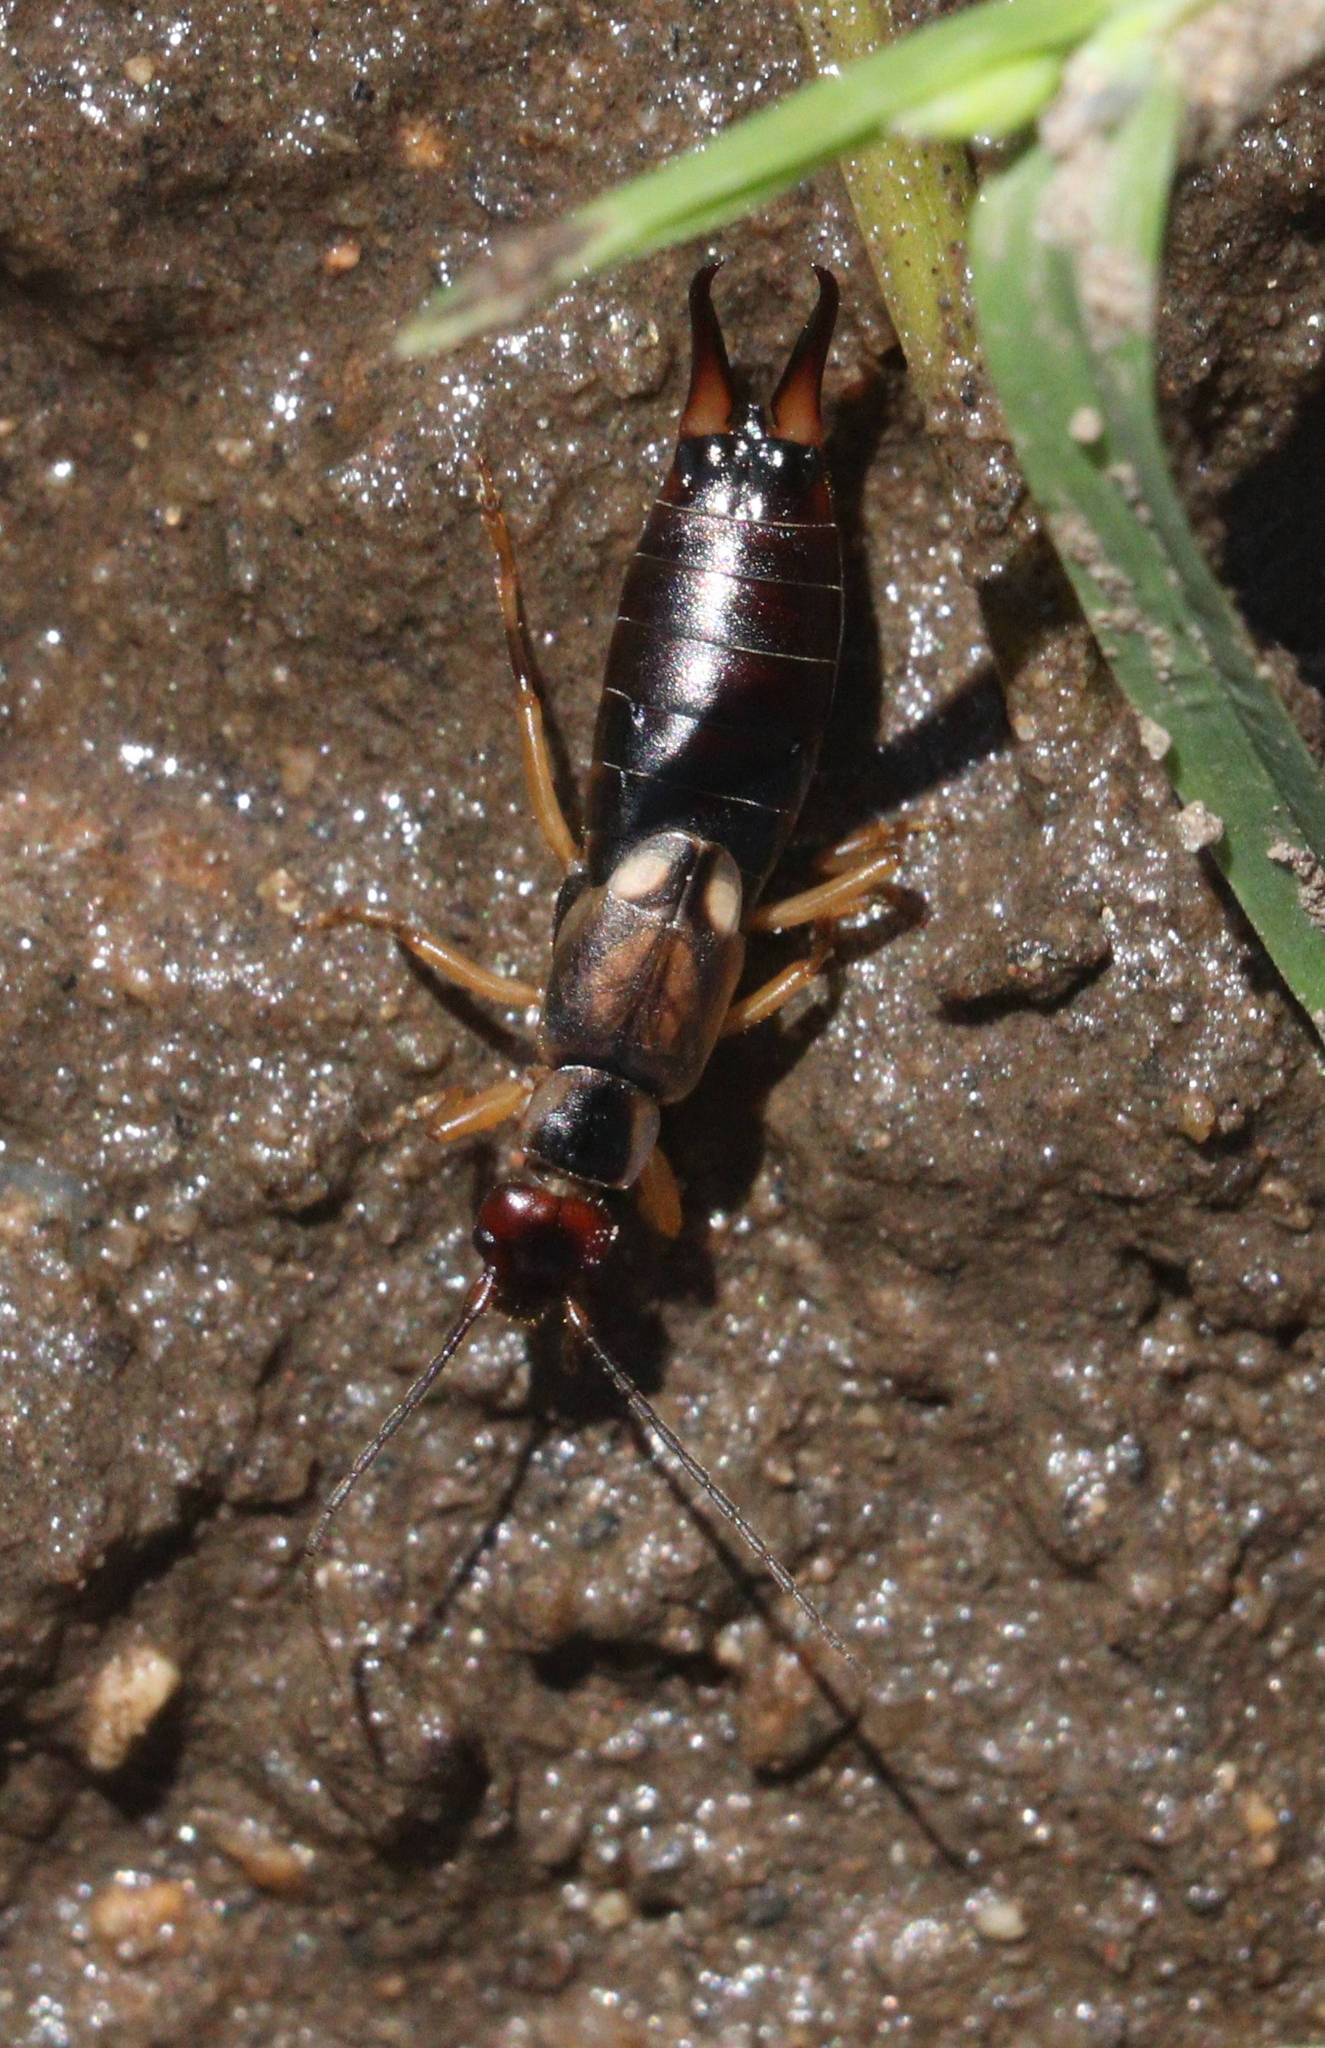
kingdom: Animalia
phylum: Arthropoda
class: Insecta
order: Dermaptera
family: Forficulidae
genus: Forficula
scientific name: Forficula
